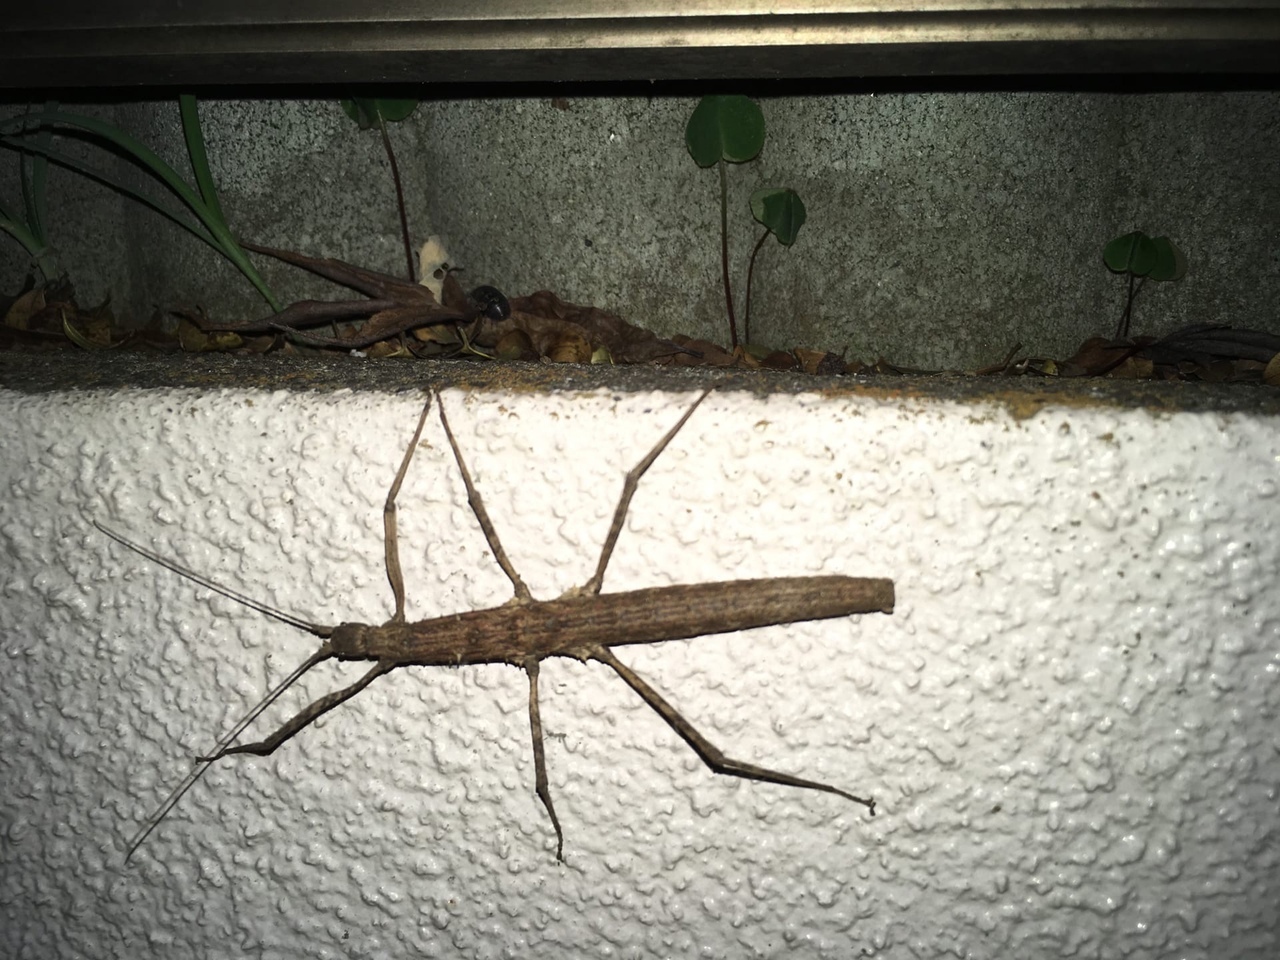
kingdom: Animalia
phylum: Arthropoda
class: Insecta
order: Phasmida
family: Lonchodidae
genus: Neohirasea
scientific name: Neohirasea japonica
